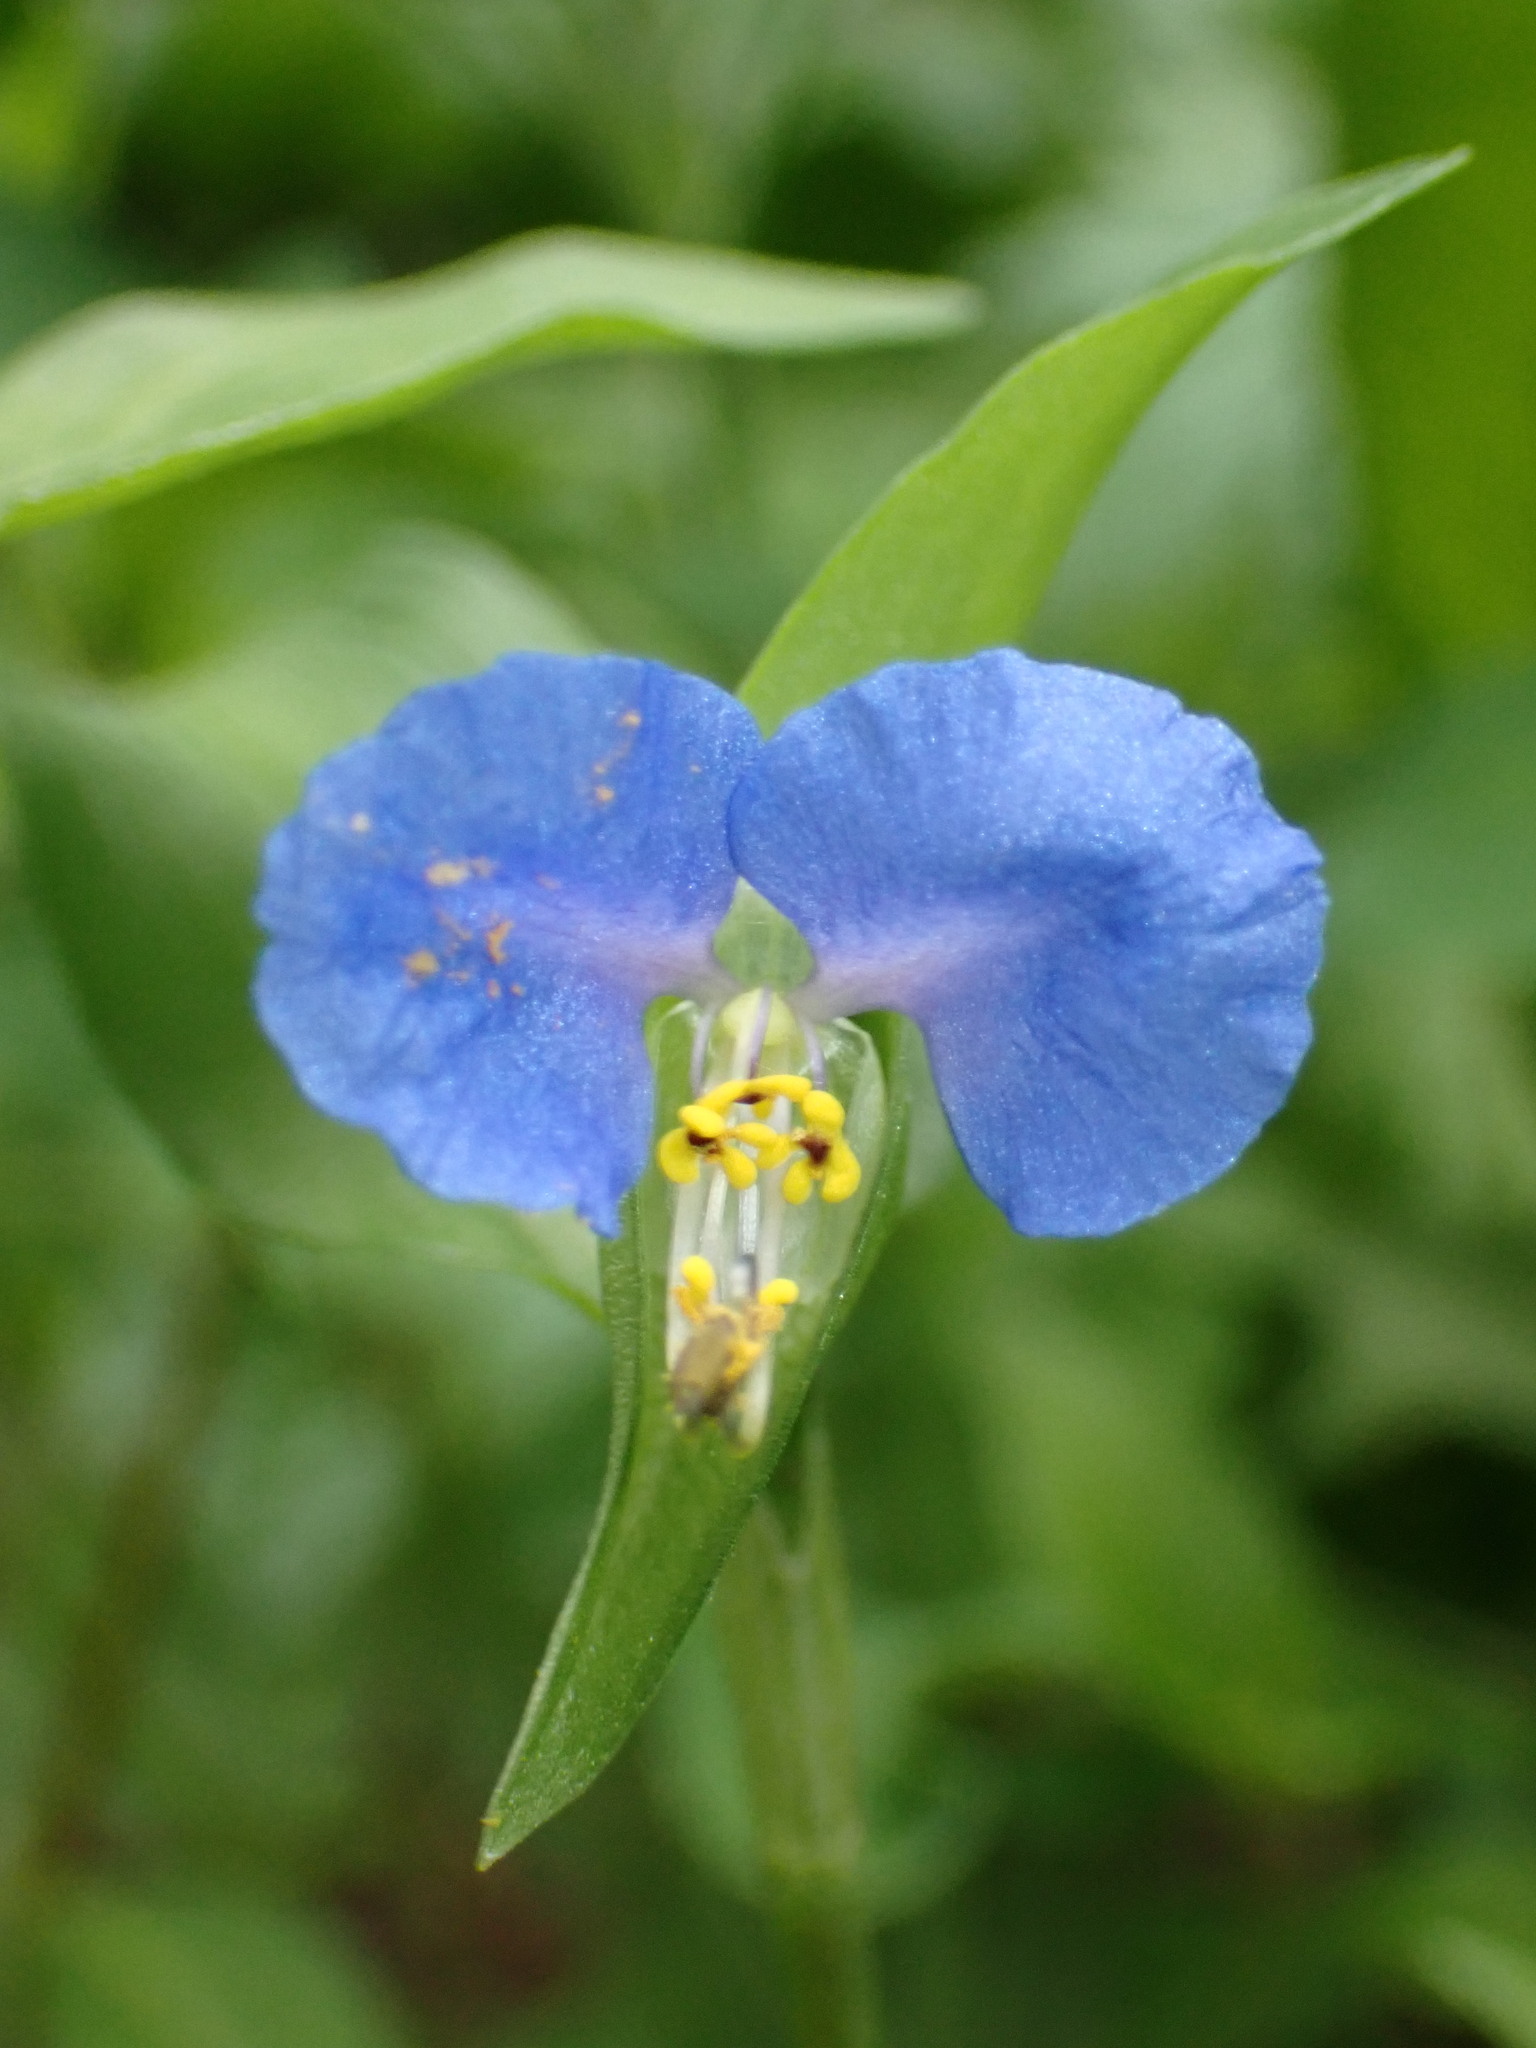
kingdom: Plantae
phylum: Tracheophyta
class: Liliopsida
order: Commelinales
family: Commelinaceae
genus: Commelina
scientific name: Commelina communis
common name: Asiatic dayflower
